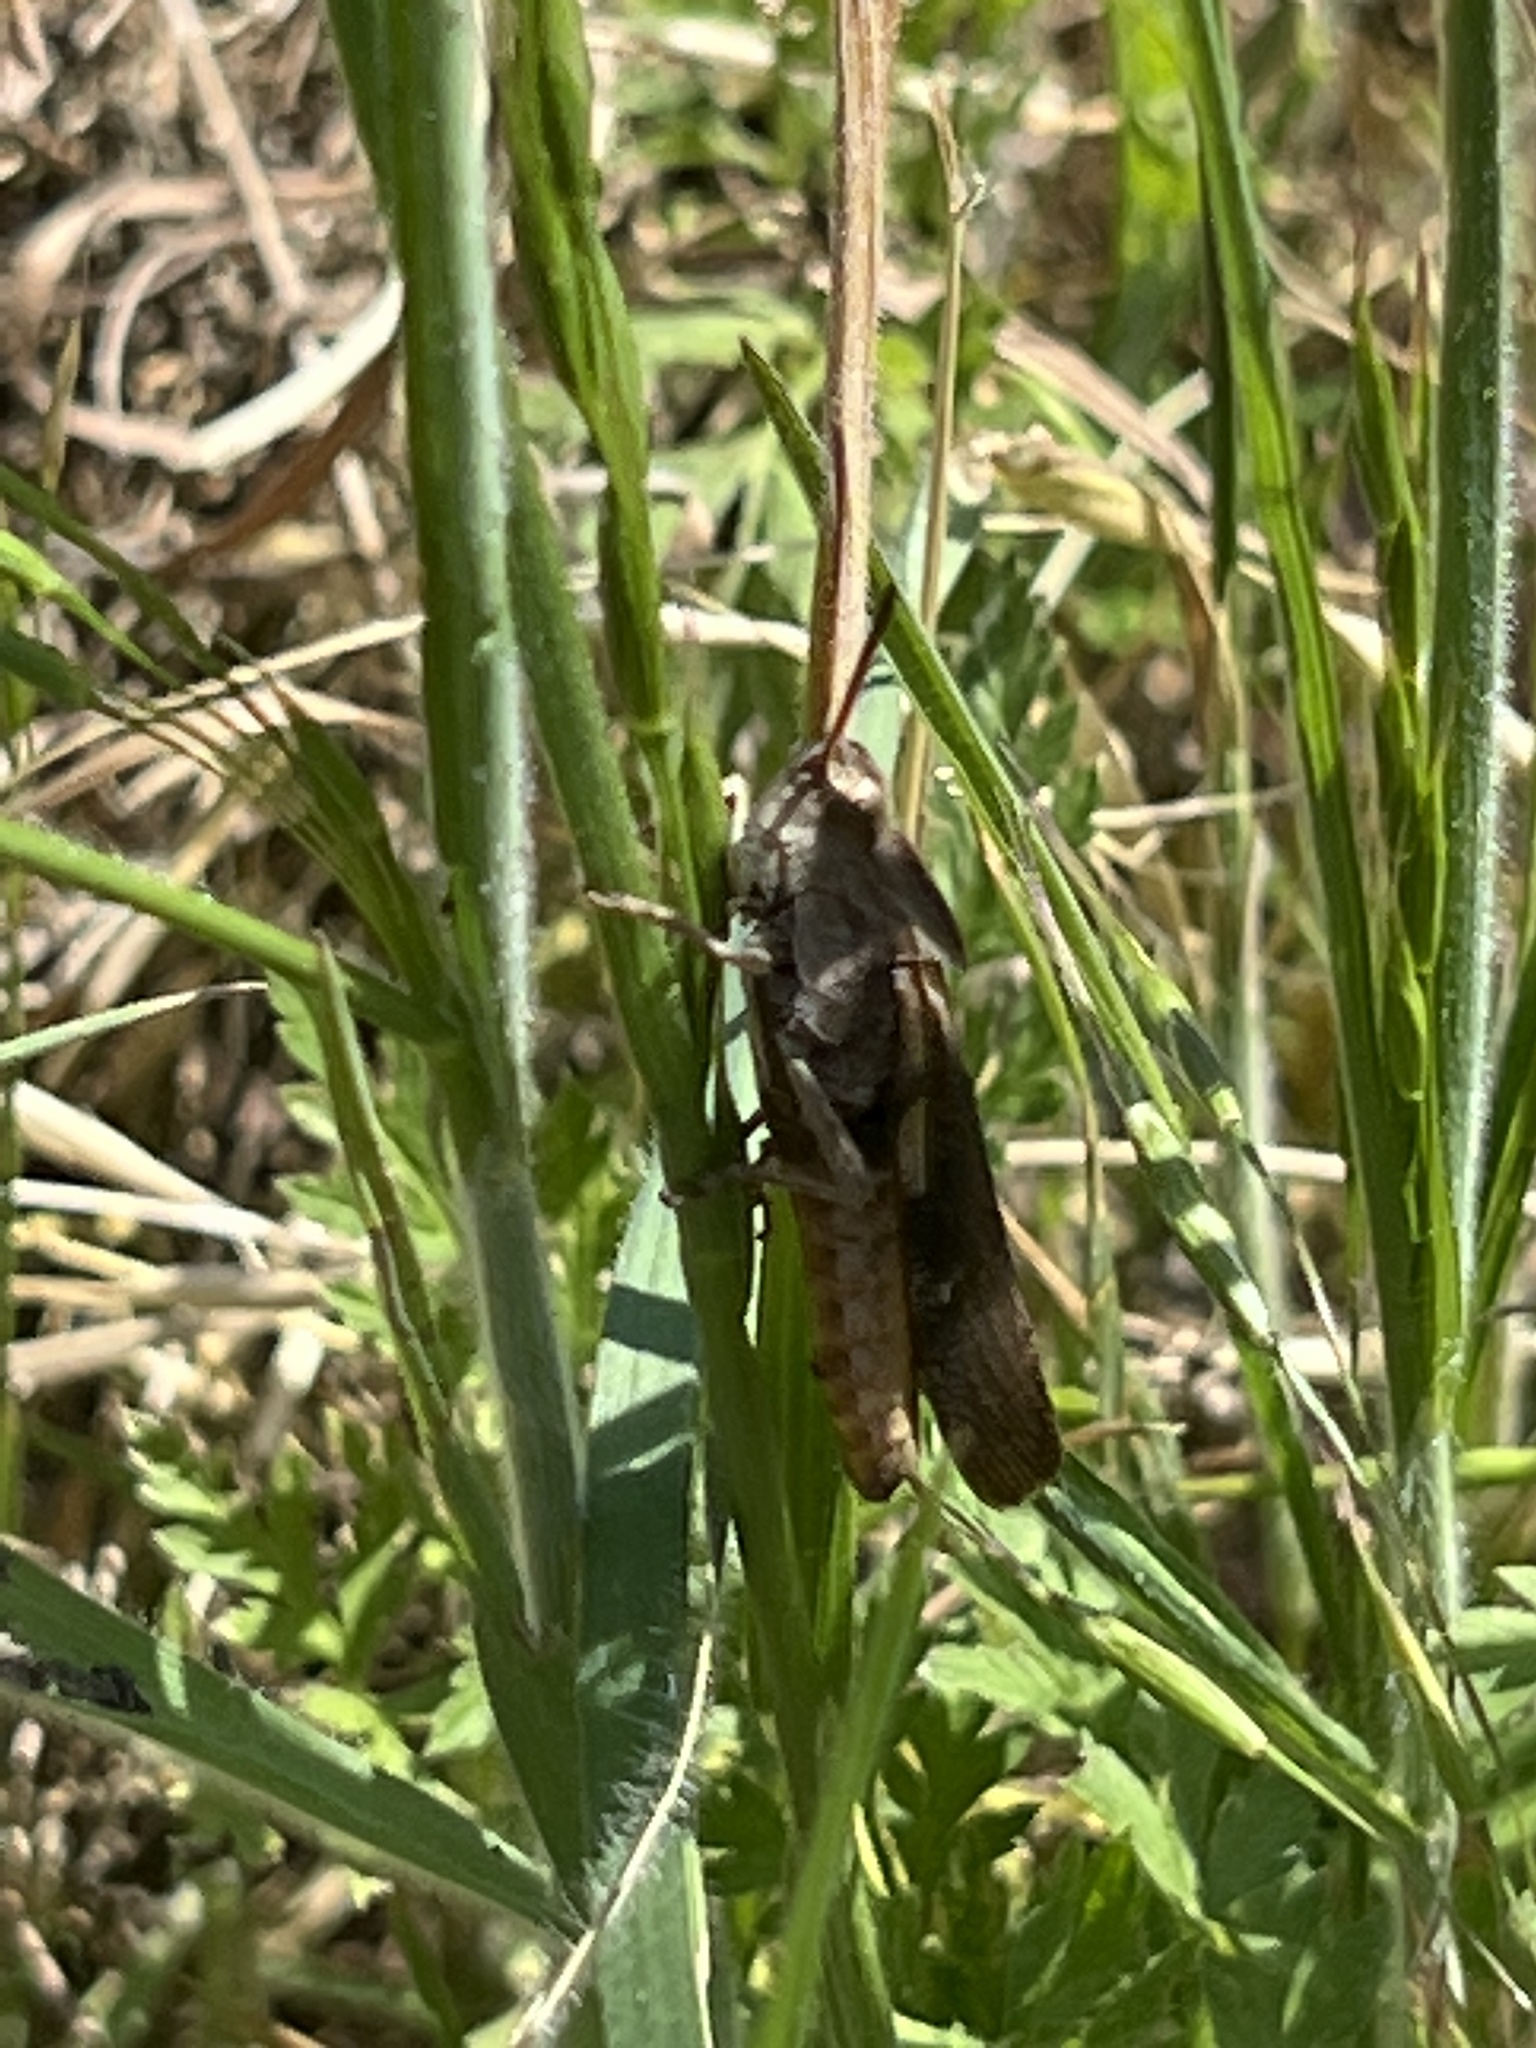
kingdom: Animalia
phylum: Arthropoda
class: Insecta
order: Orthoptera
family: Acrididae
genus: Chortophaga
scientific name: Chortophaga viridifasciata
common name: Green-striped grasshopper
